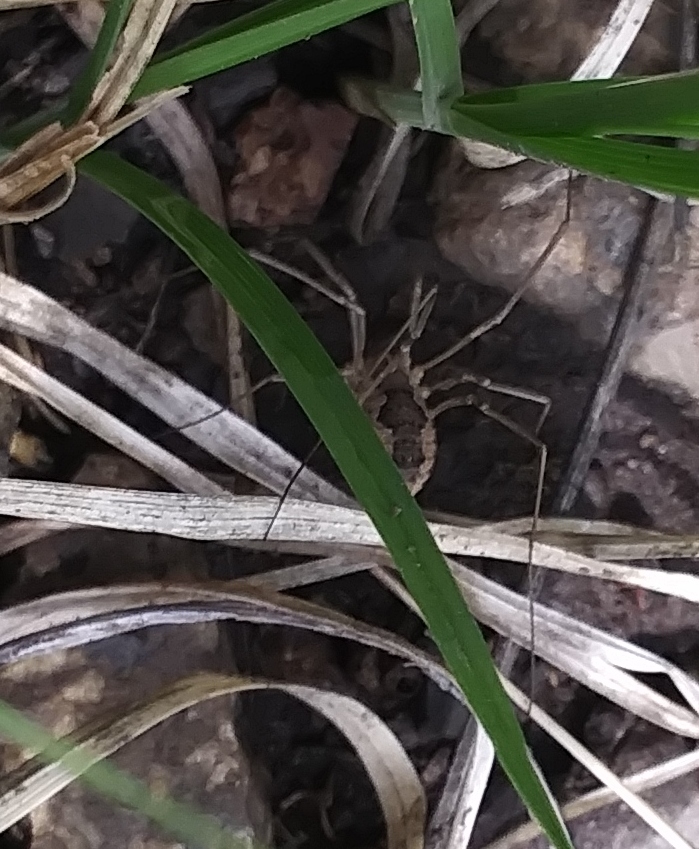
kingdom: Animalia
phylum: Arthropoda
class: Arachnida
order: Opiliones
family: Phalangiidae
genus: Phalangium
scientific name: Phalangium opilio
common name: Daddy longleg
